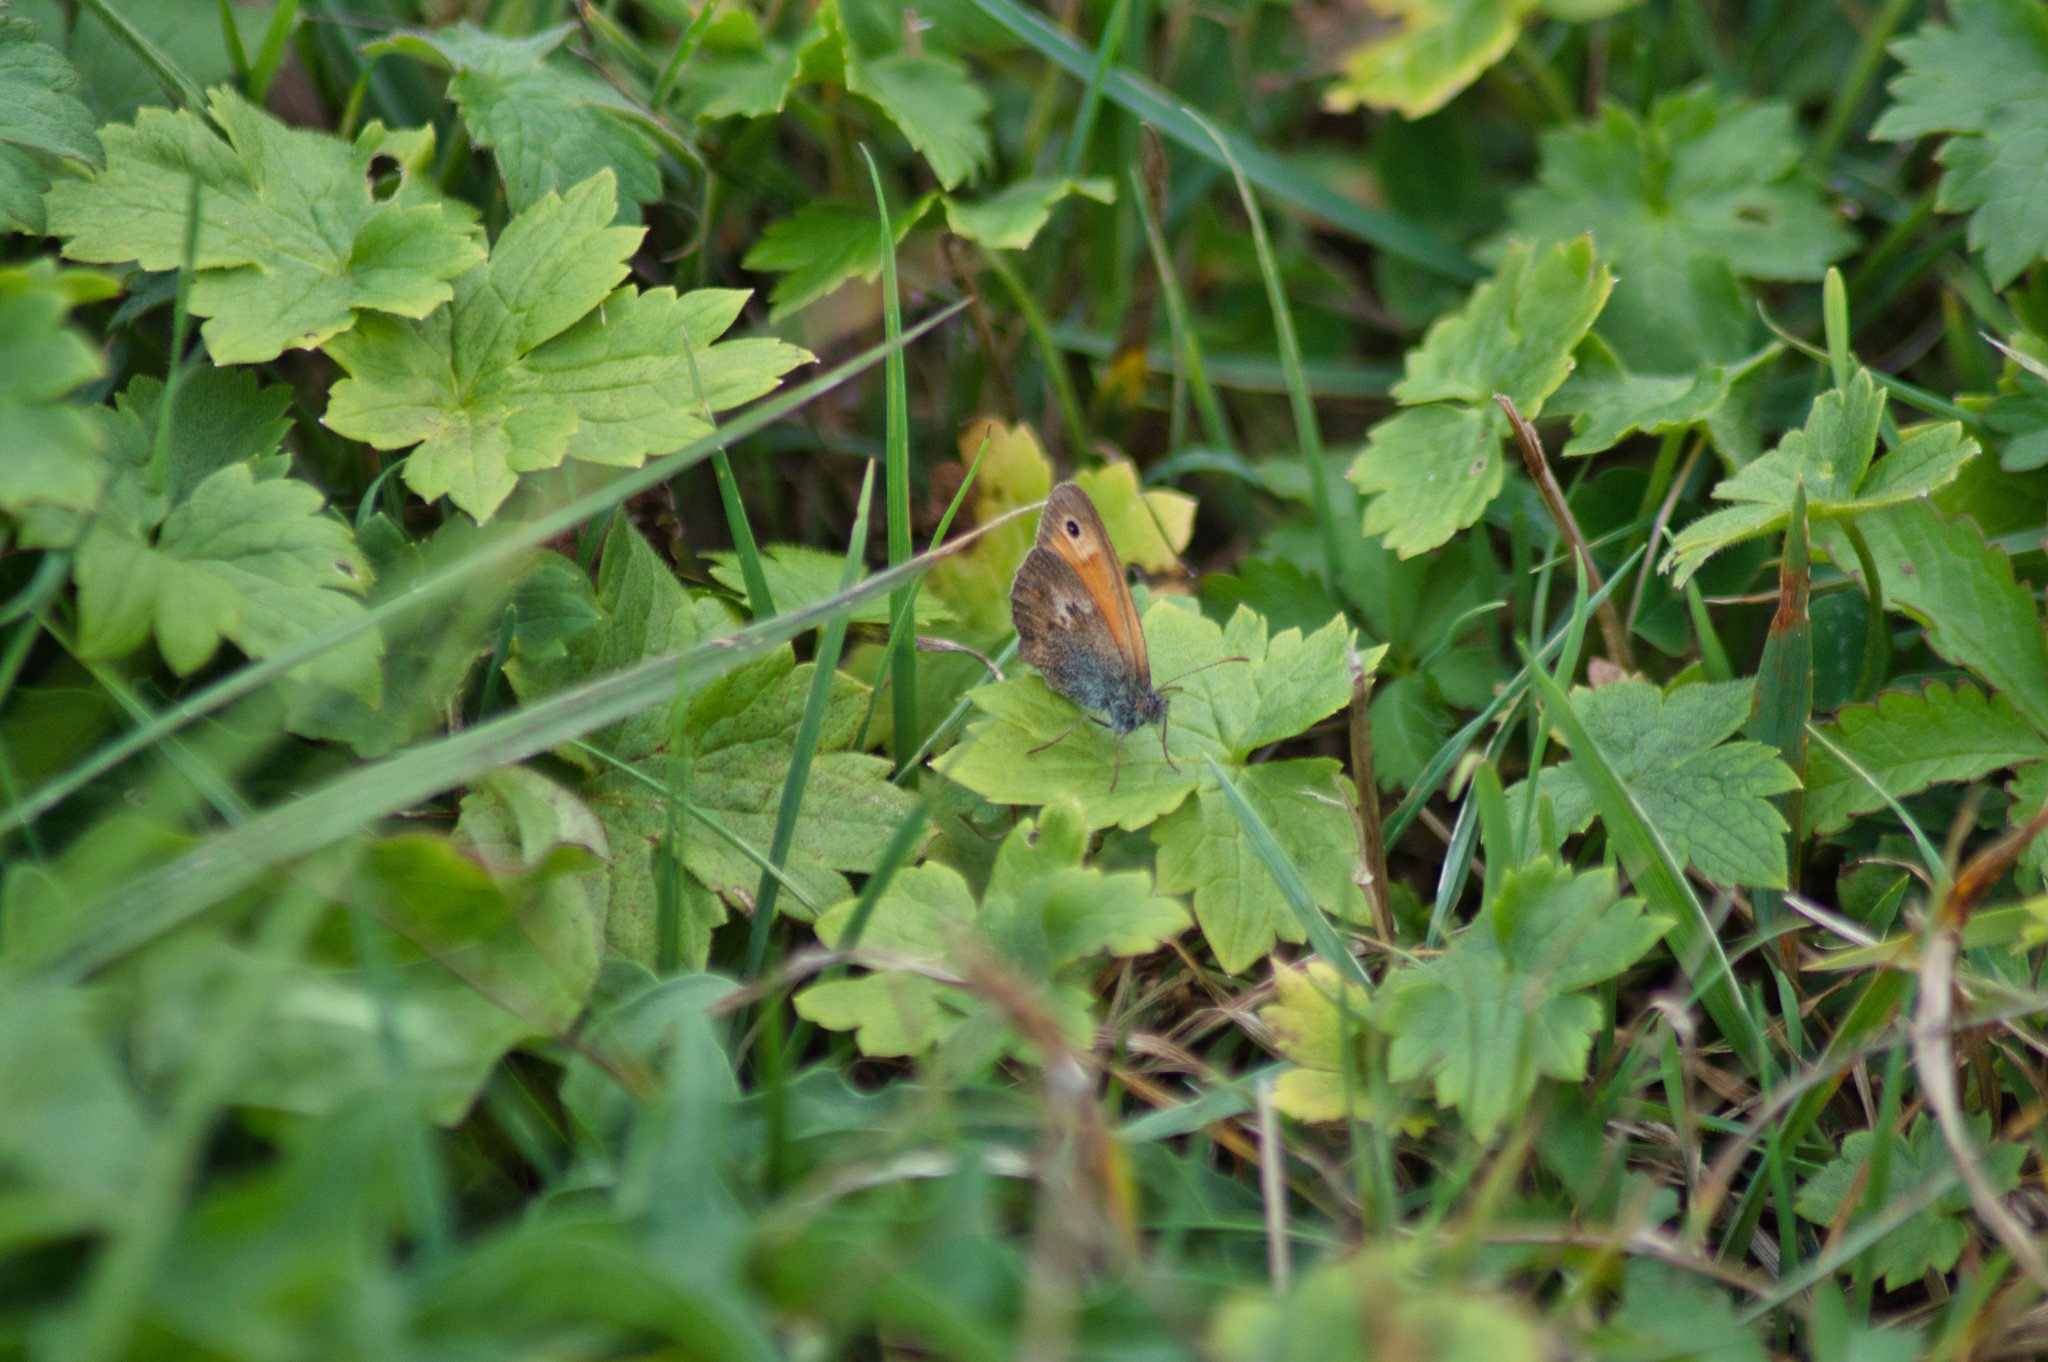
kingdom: Animalia
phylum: Arthropoda
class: Insecta
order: Lepidoptera
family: Nymphalidae
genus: Coenonympha
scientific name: Coenonympha pamphilus
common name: Small heath
